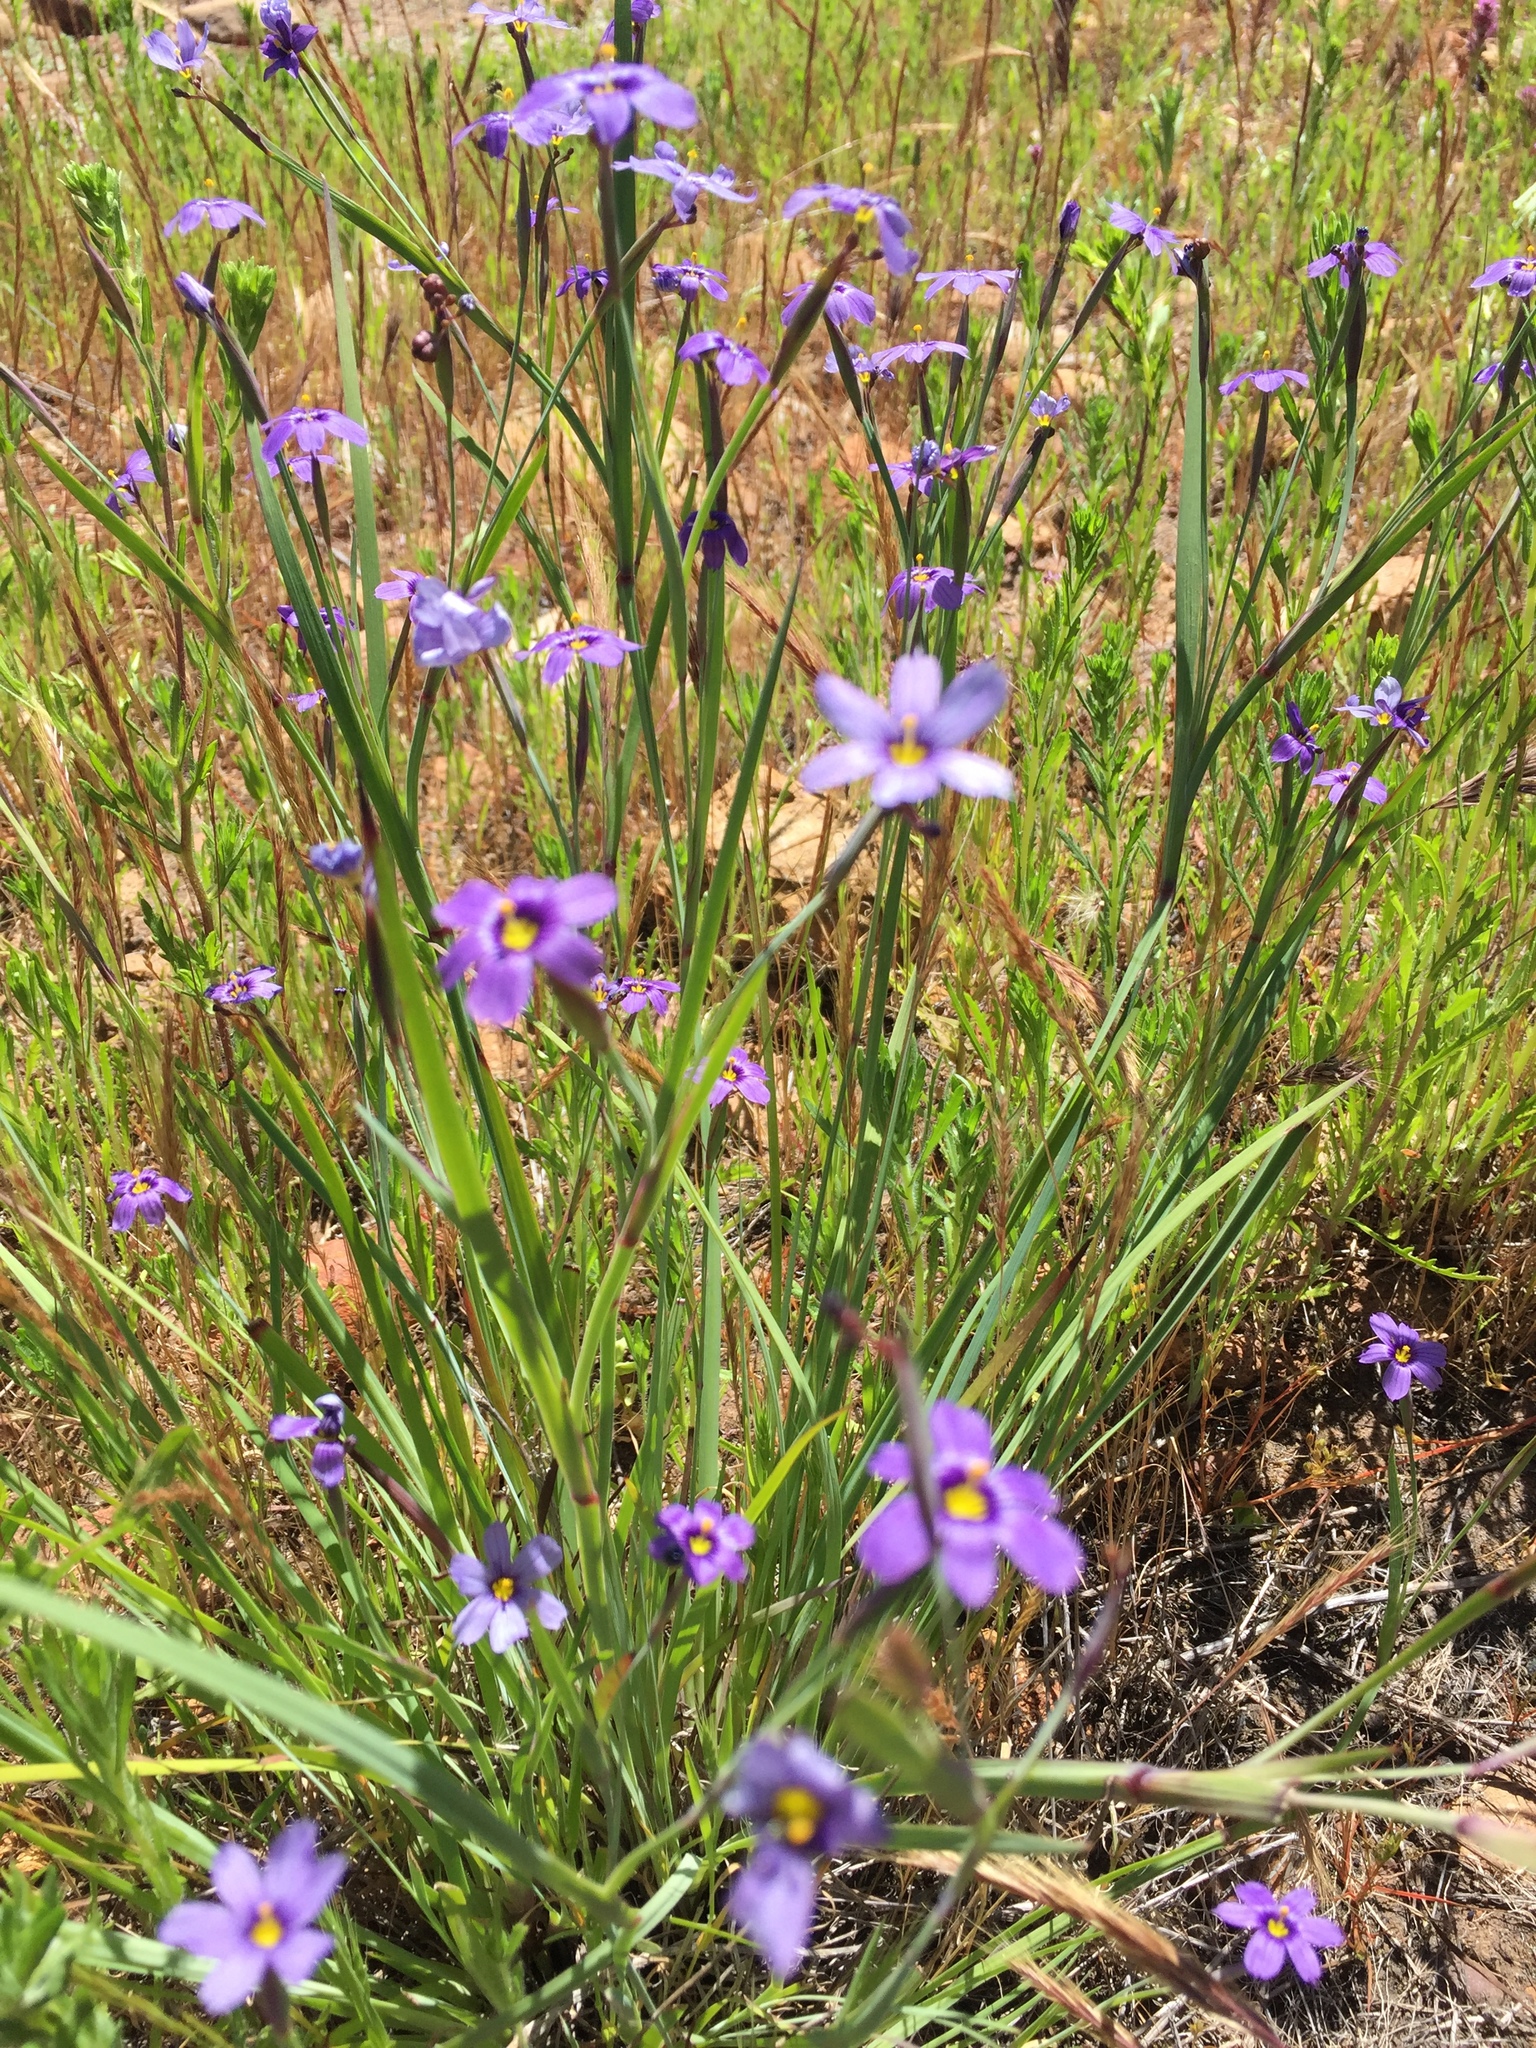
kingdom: Plantae
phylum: Tracheophyta
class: Liliopsida
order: Asparagales
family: Iridaceae
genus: Sisyrinchium
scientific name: Sisyrinchium bellum
